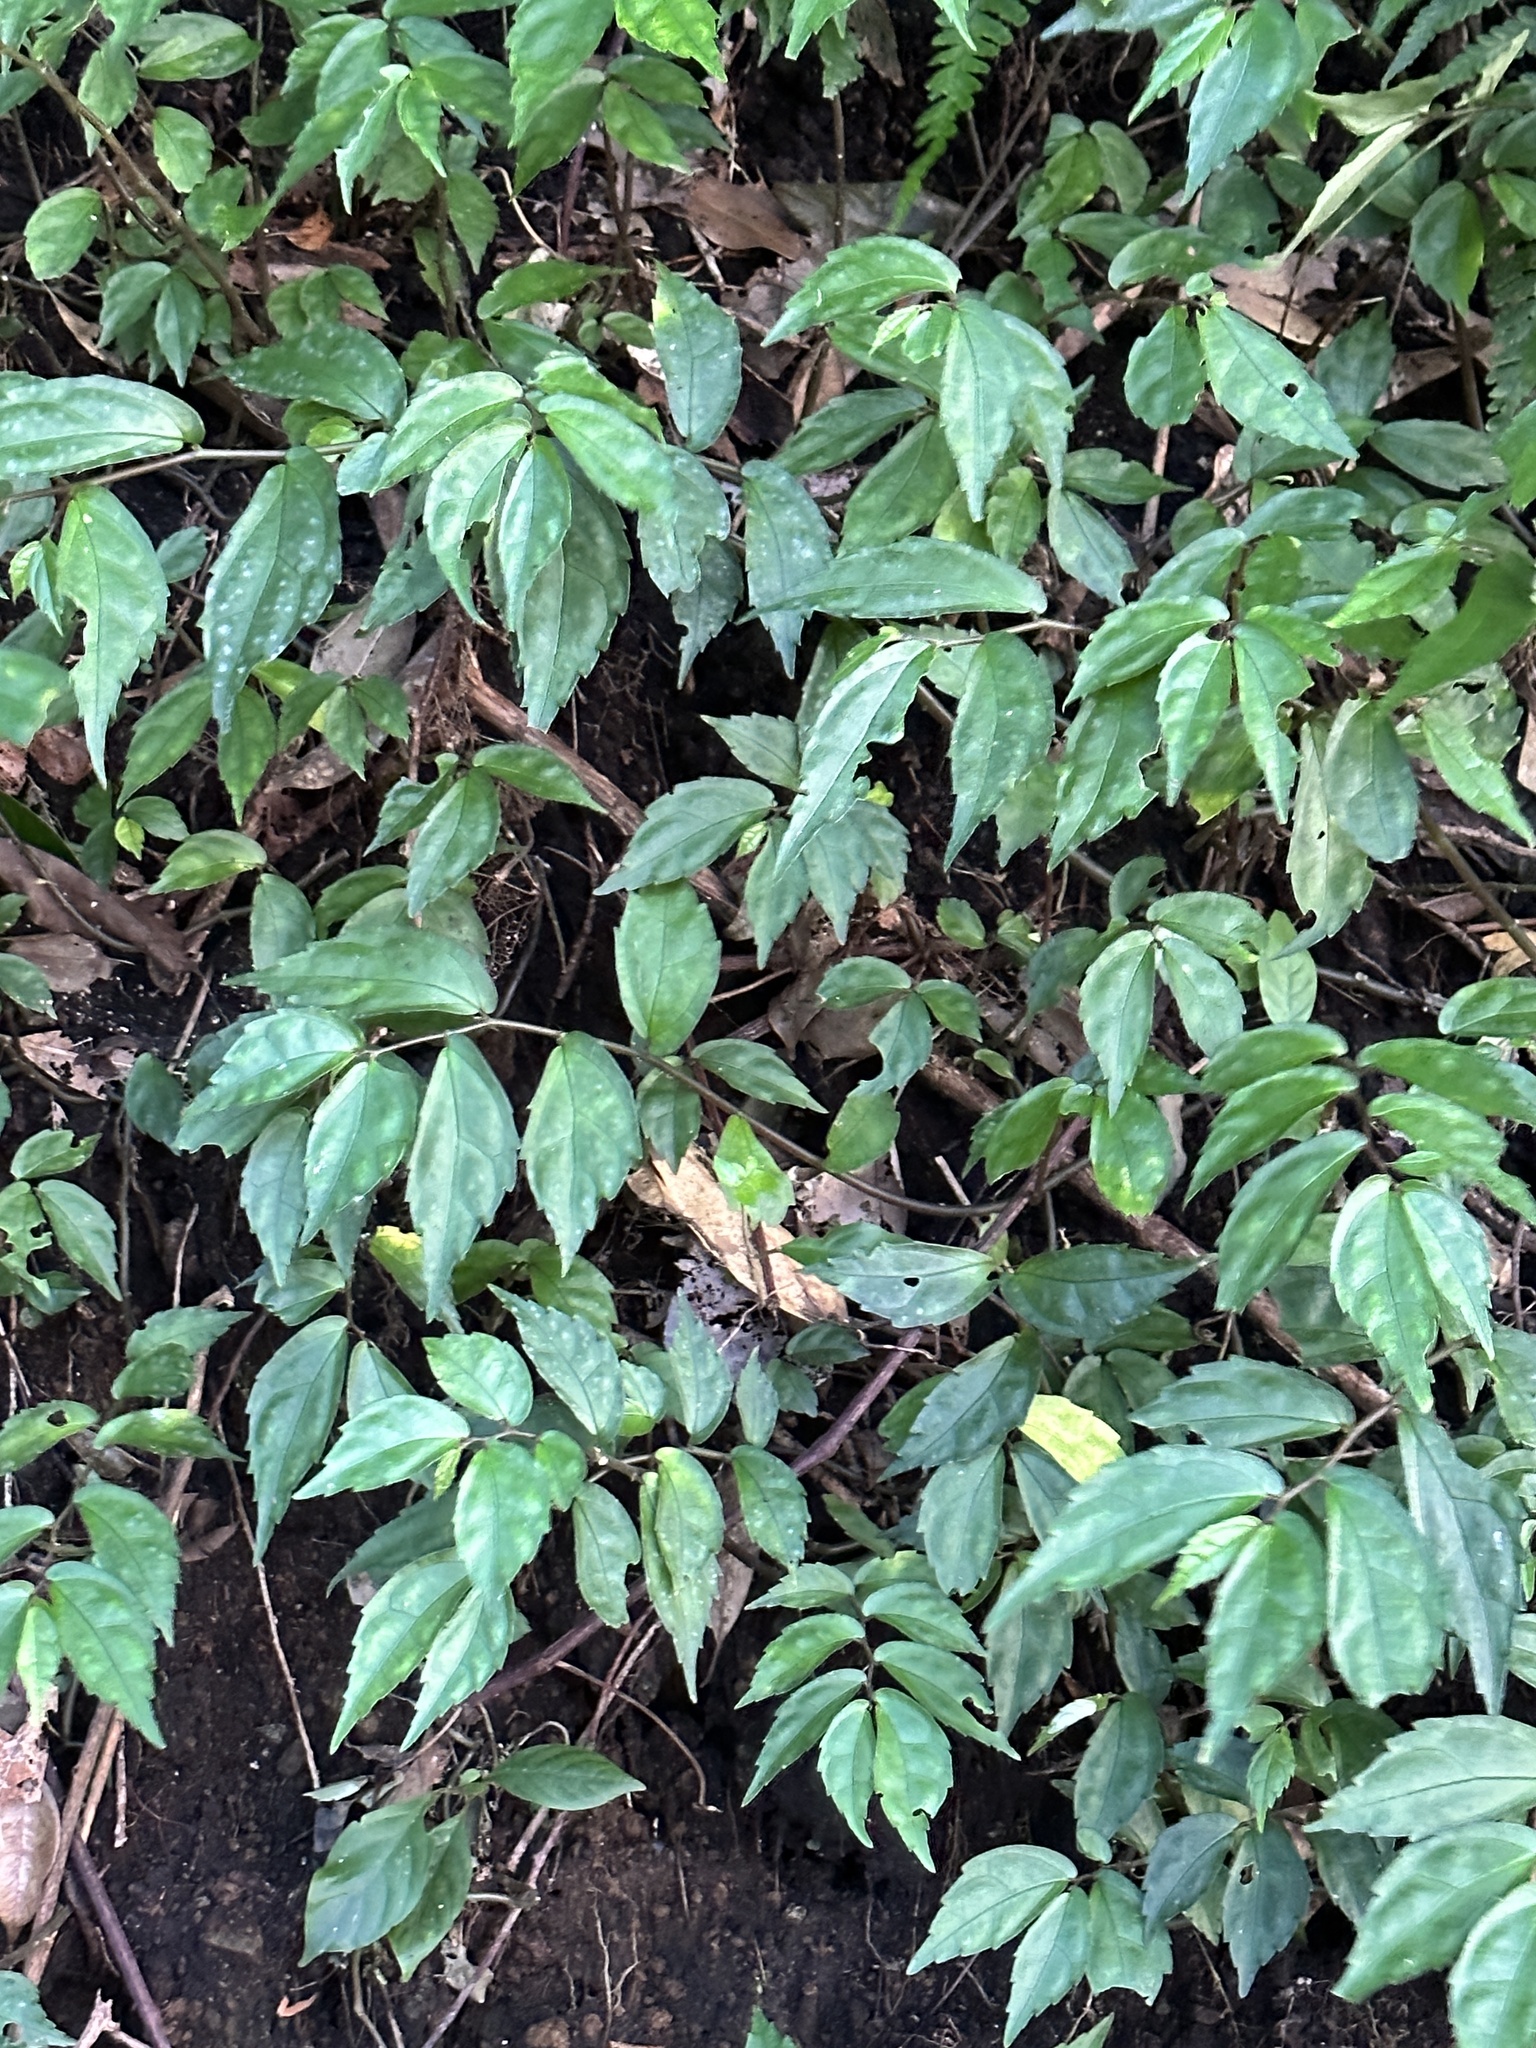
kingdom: Plantae
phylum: Tracheophyta
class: Magnoliopsida
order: Rosales
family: Urticaceae
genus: Elatostema
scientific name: Elatostema radicans
